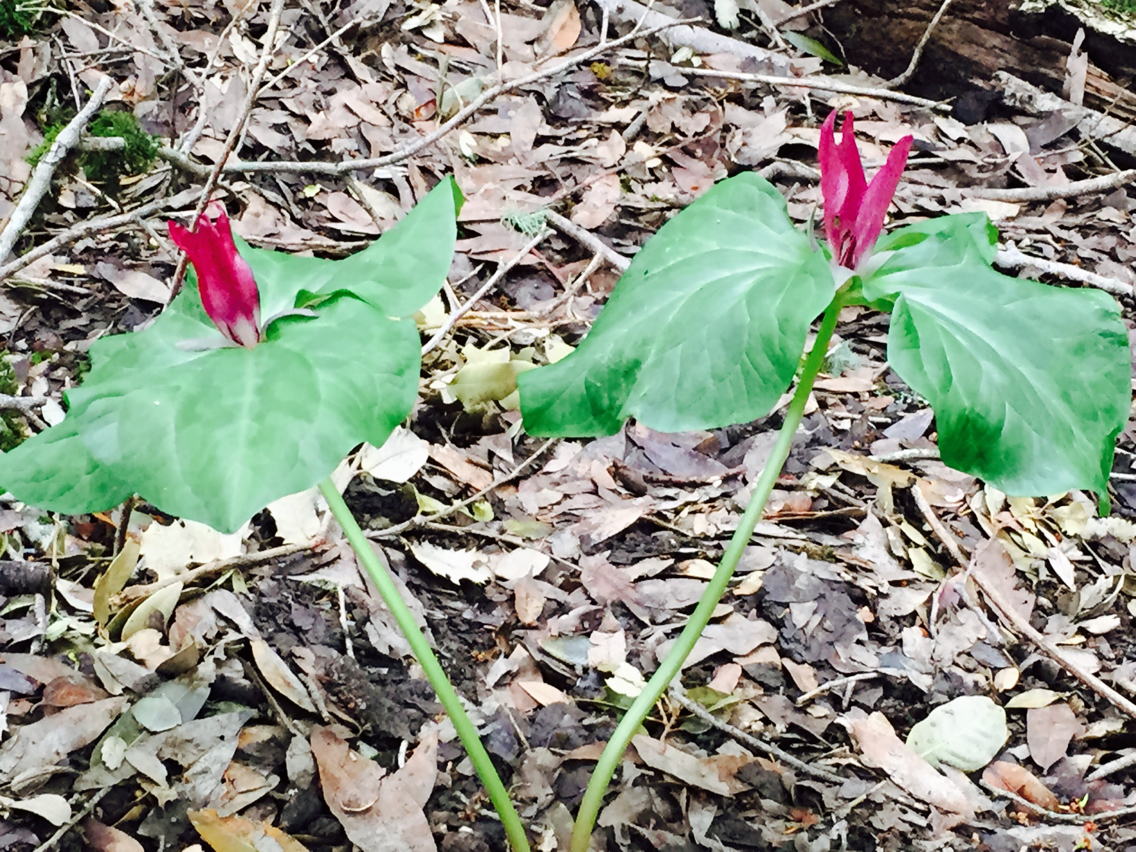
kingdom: Plantae
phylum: Tracheophyta
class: Liliopsida
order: Liliales
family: Melanthiaceae
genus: Trillium
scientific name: Trillium chloropetalum
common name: Giant trillium
